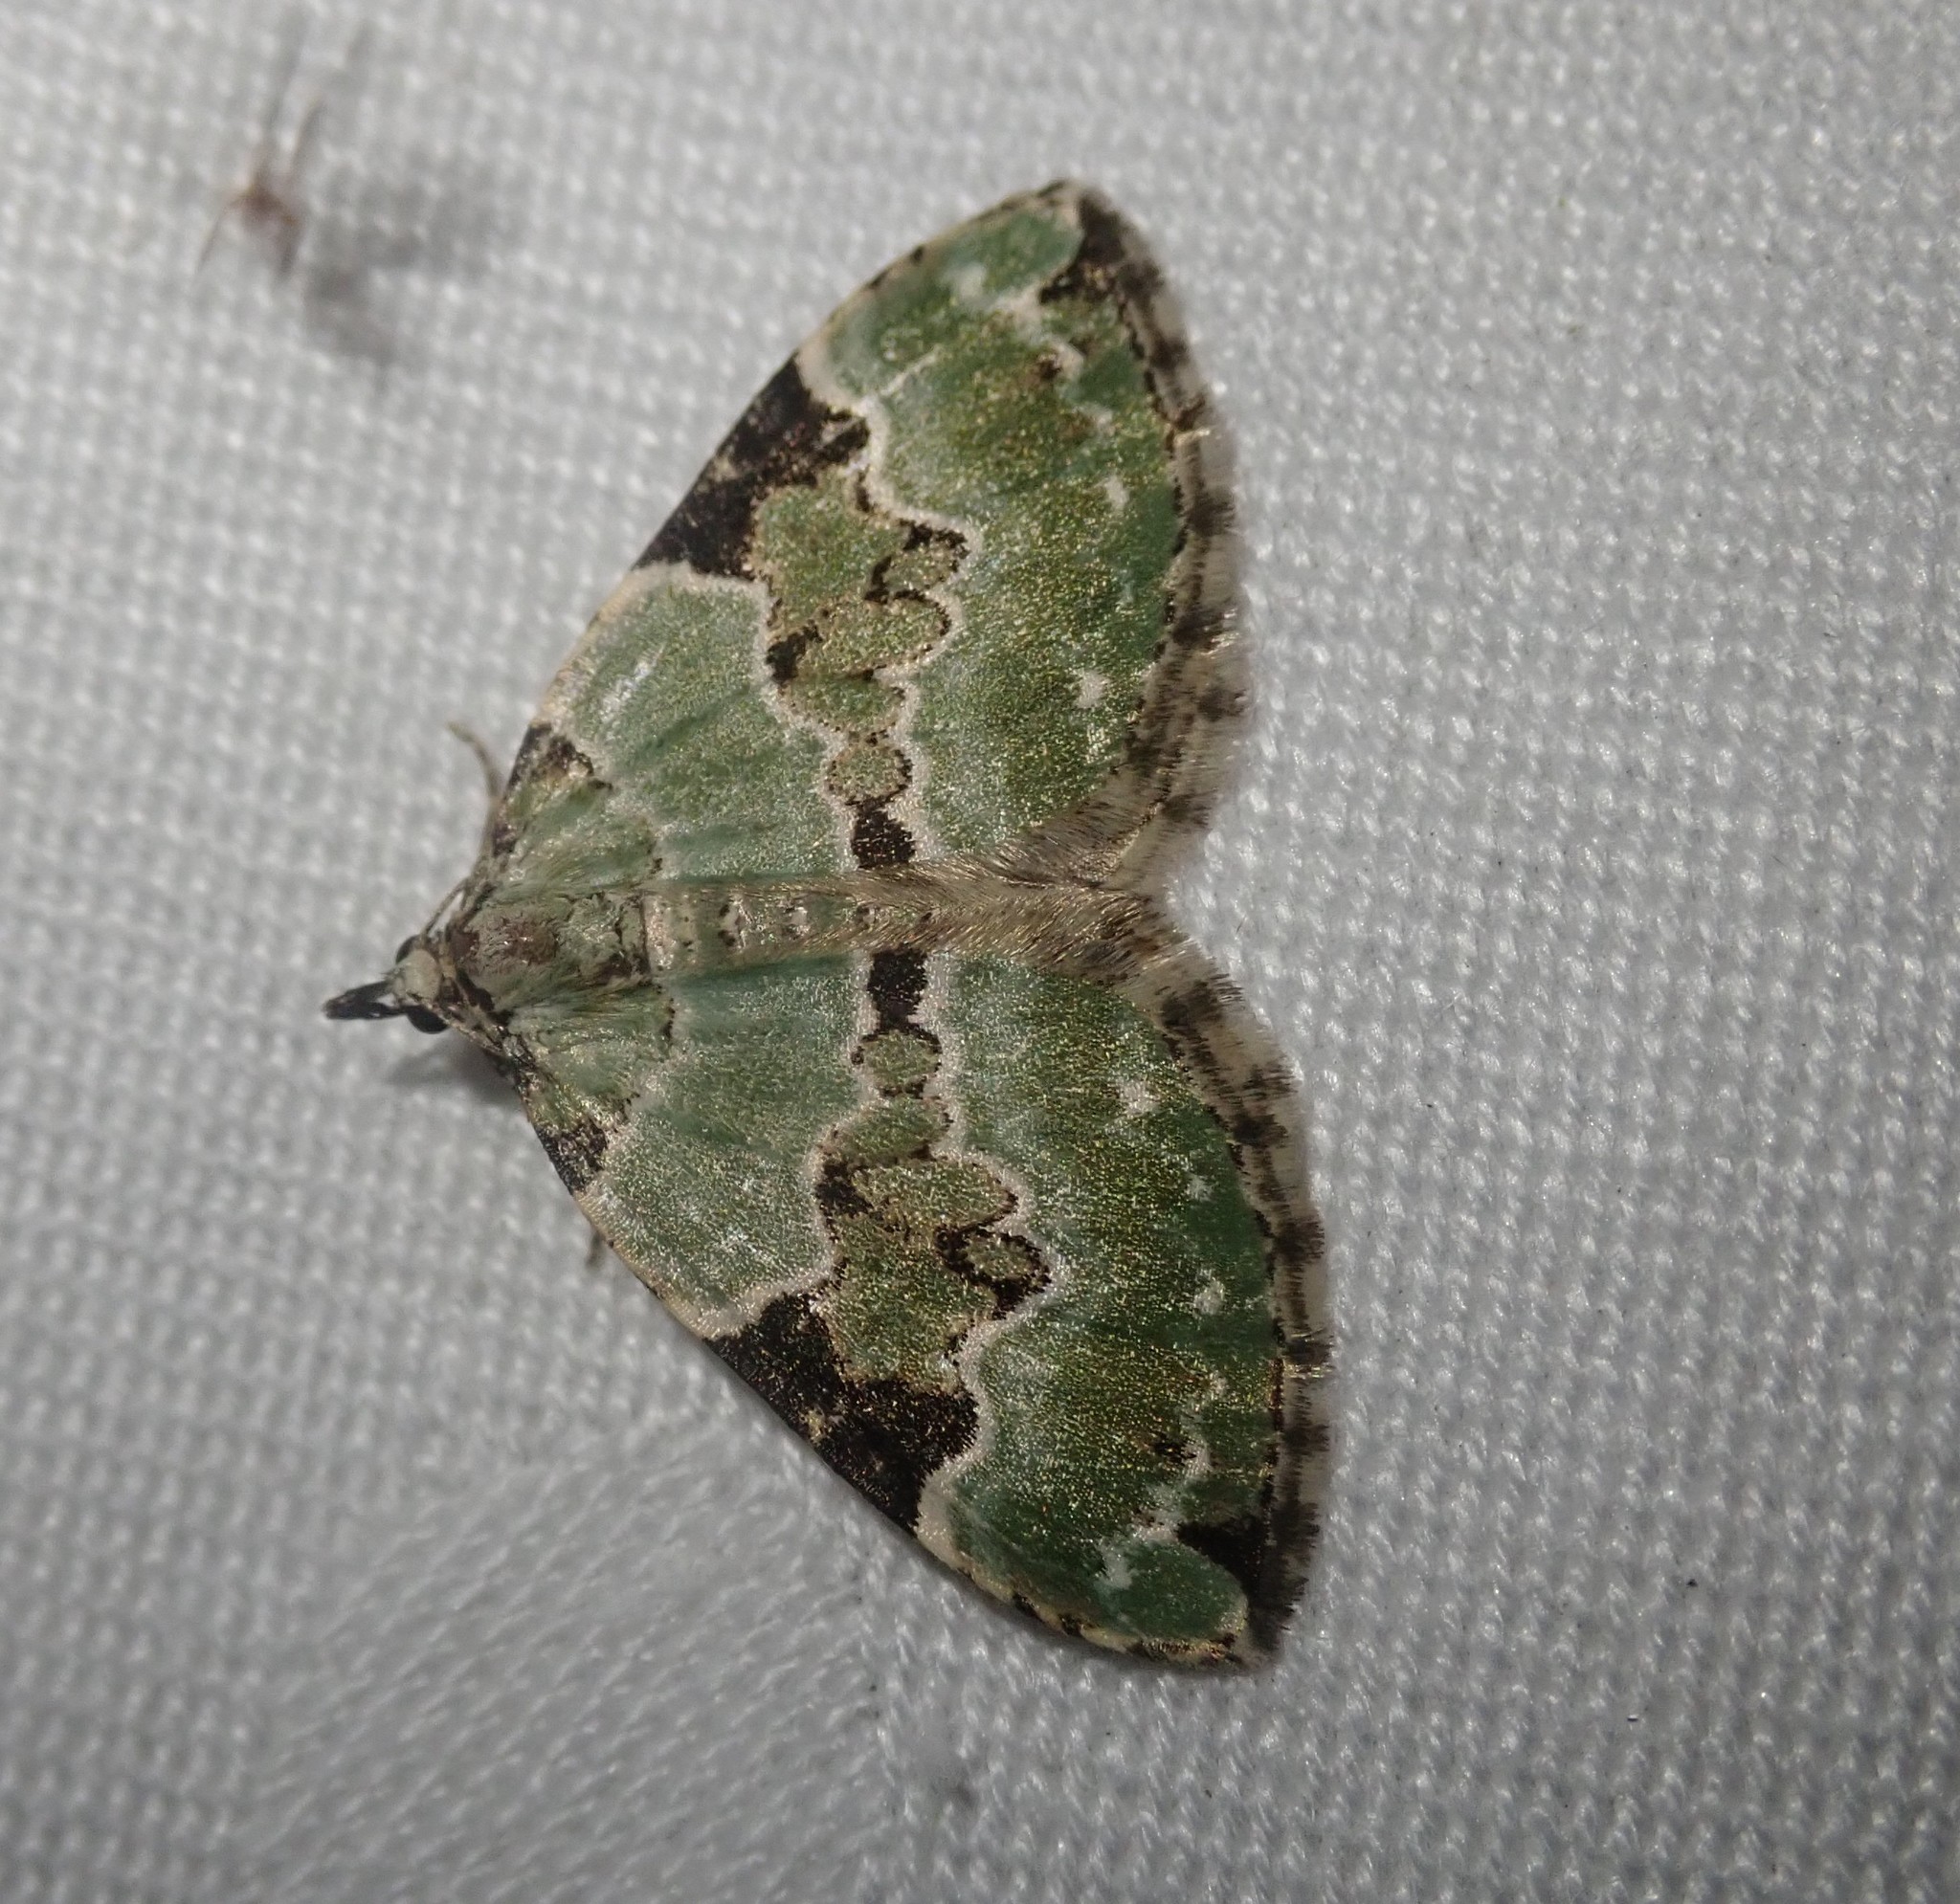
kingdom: Animalia
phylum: Arthropoda
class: Insecta
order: Lepidoptera
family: Geometridae
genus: Colostygia
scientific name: Colostygia pectinataria
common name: Green carpet
